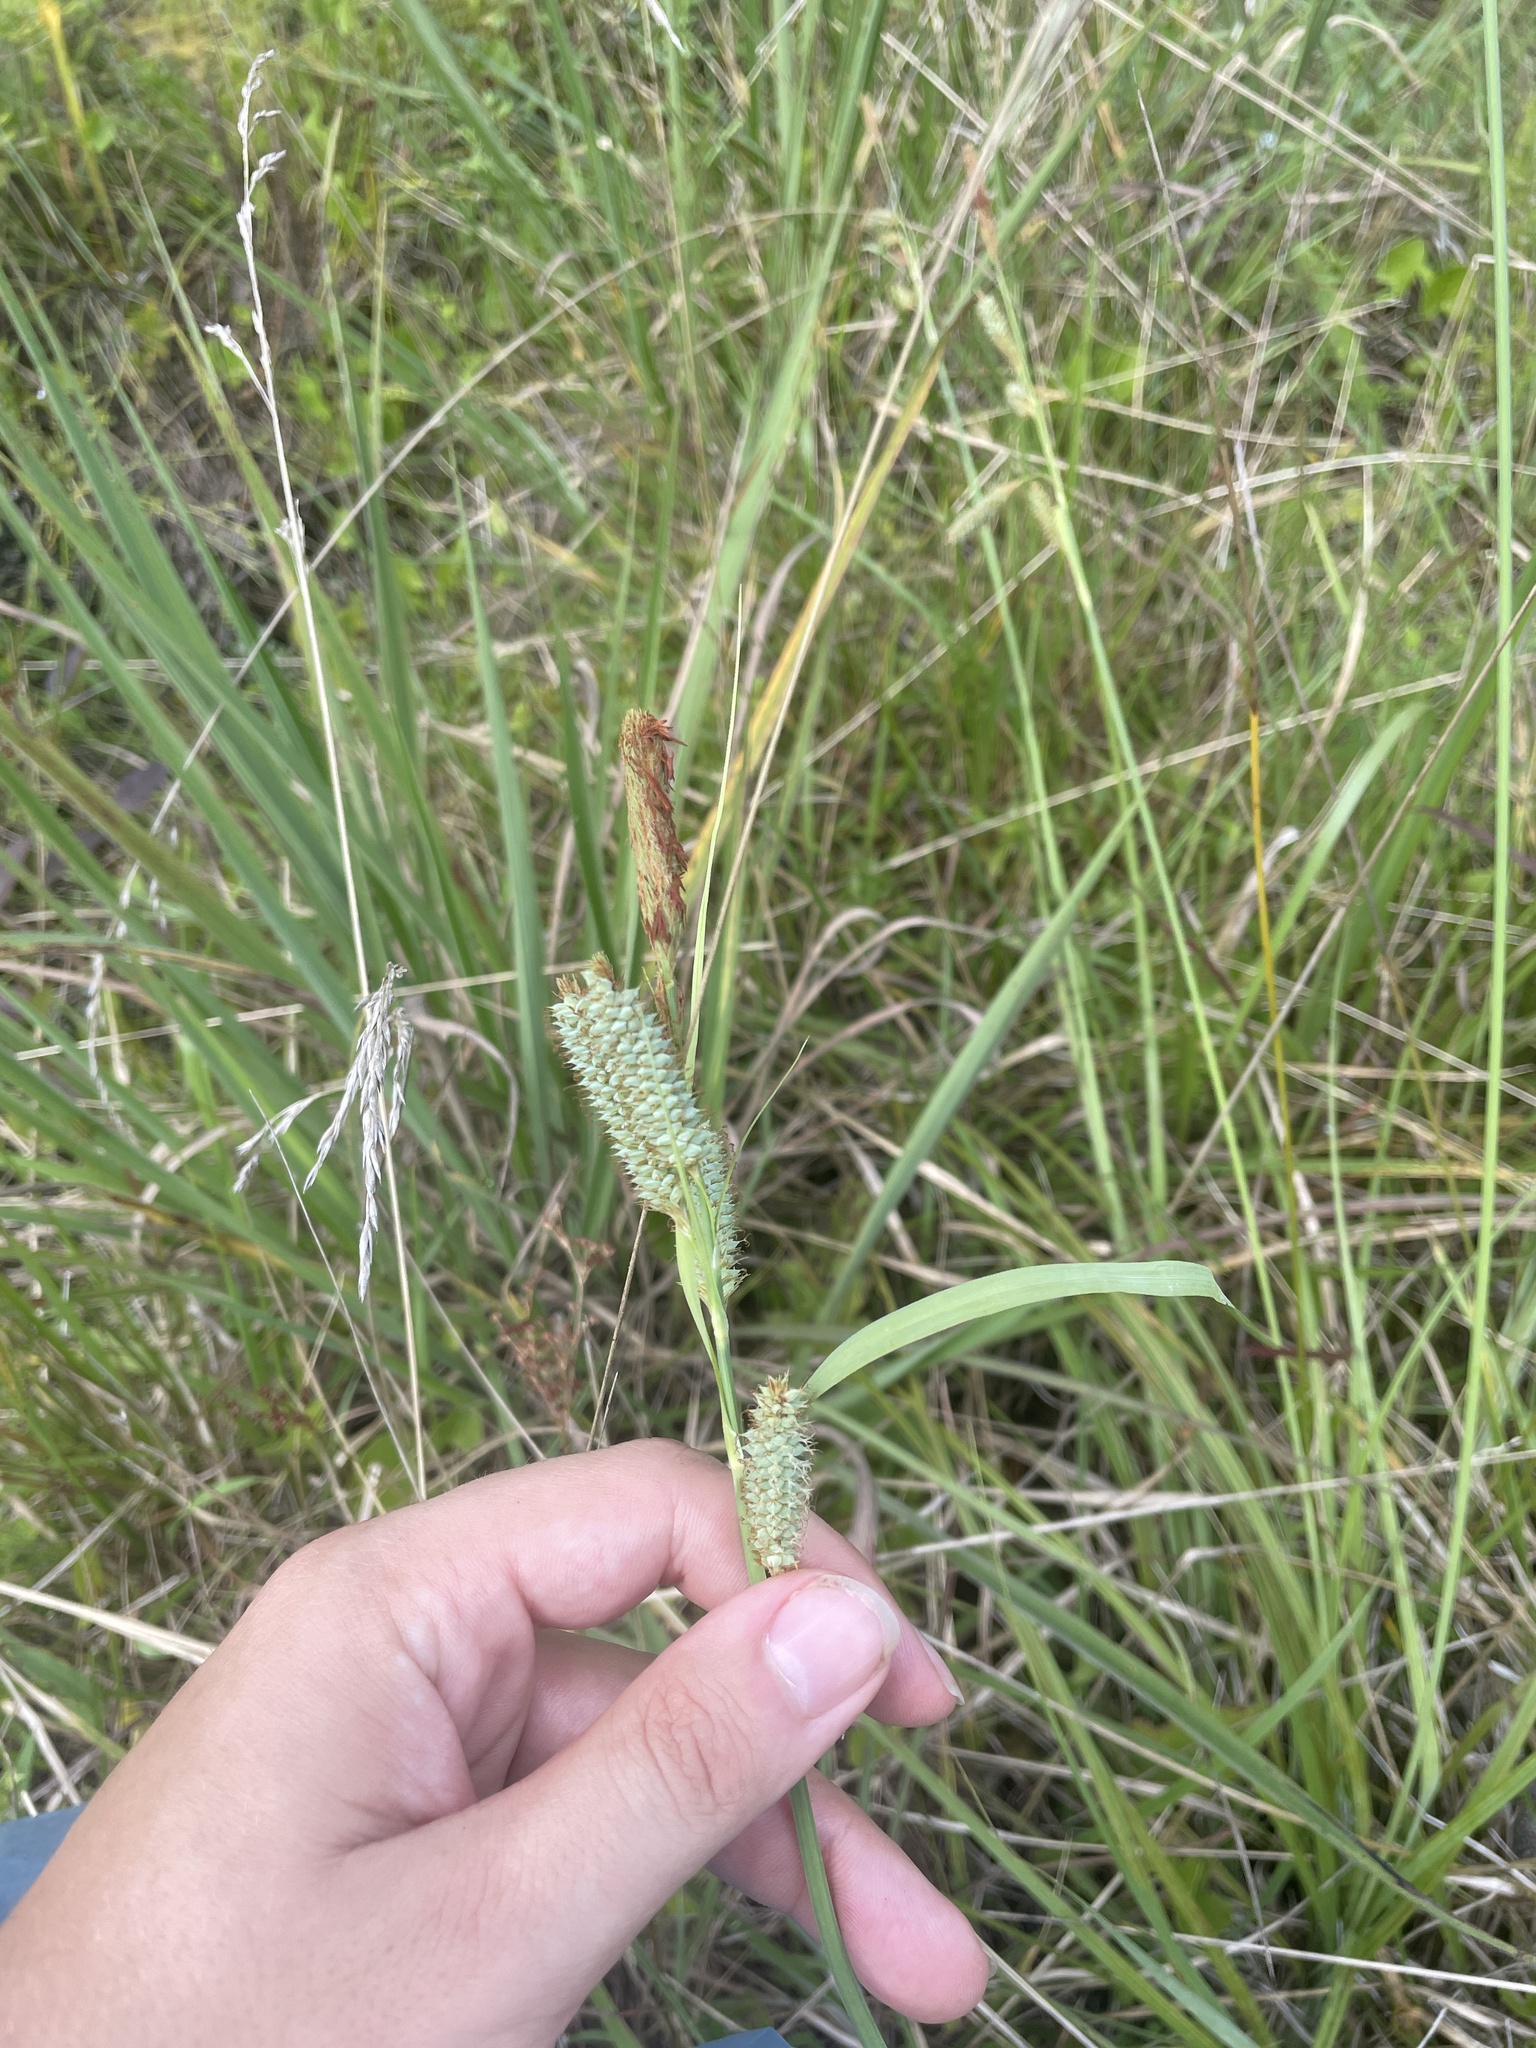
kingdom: Plantae
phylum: Tracheophyta
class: Liliopsida
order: Poales
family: Cyperaceae
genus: Carex
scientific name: Carex glaucescens
